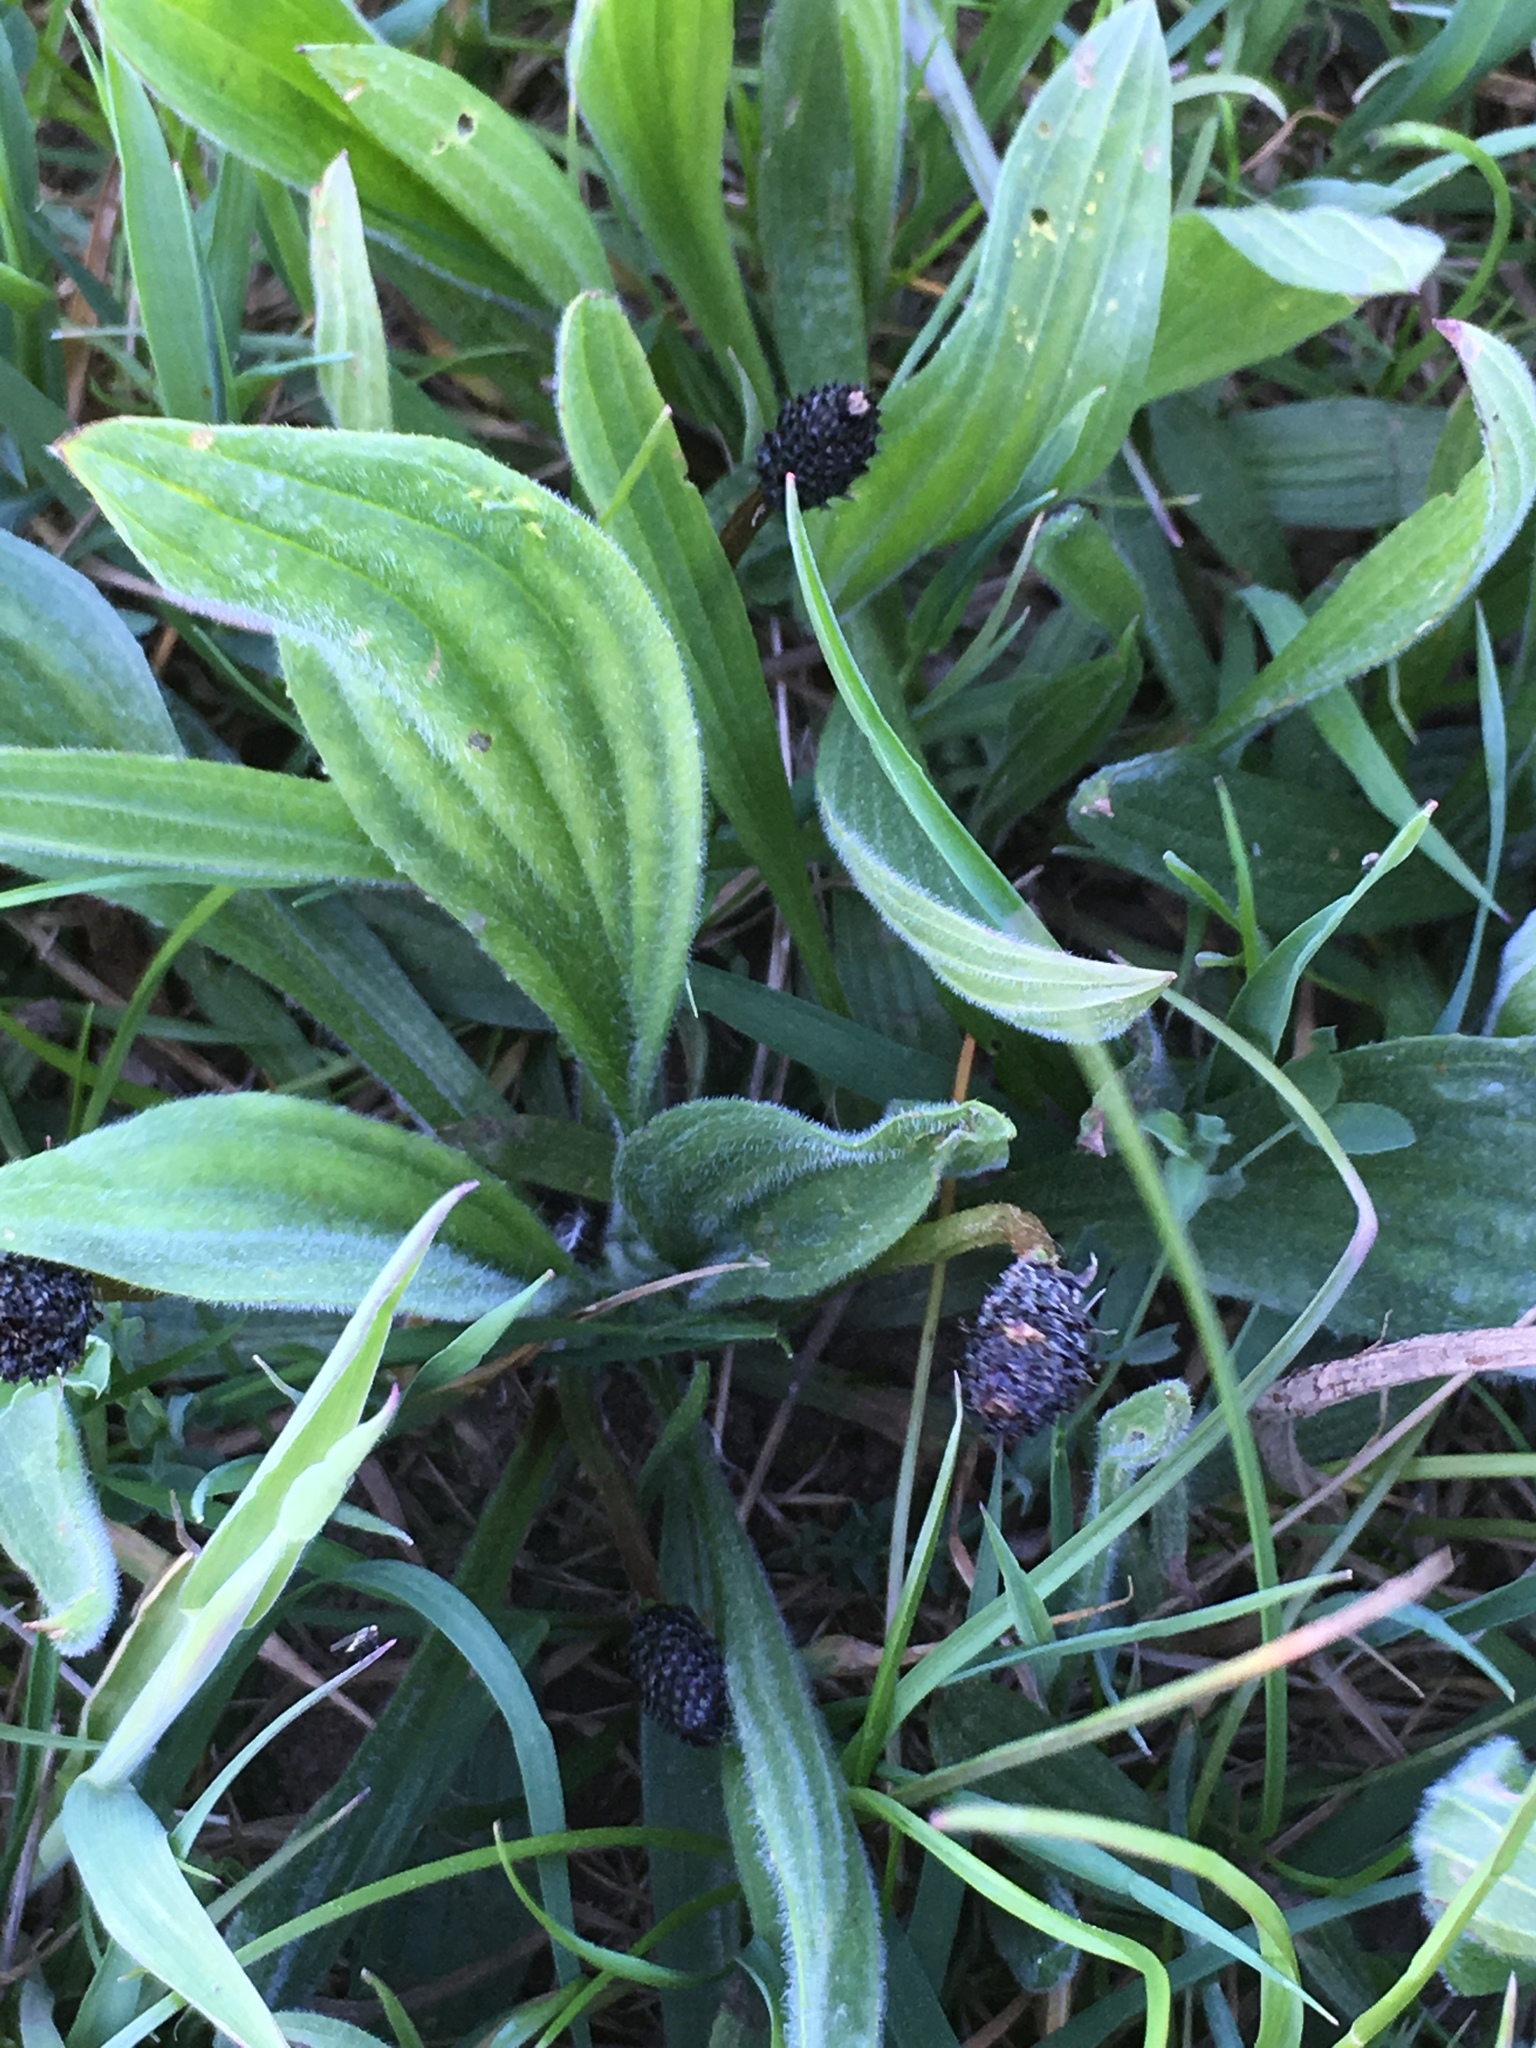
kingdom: Plantae
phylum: Tracheophyta
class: Magnoliopsida
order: Lamiales
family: Plantaginaceae
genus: Plantago
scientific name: Plantago lanceolata
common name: Ribwort plantain
